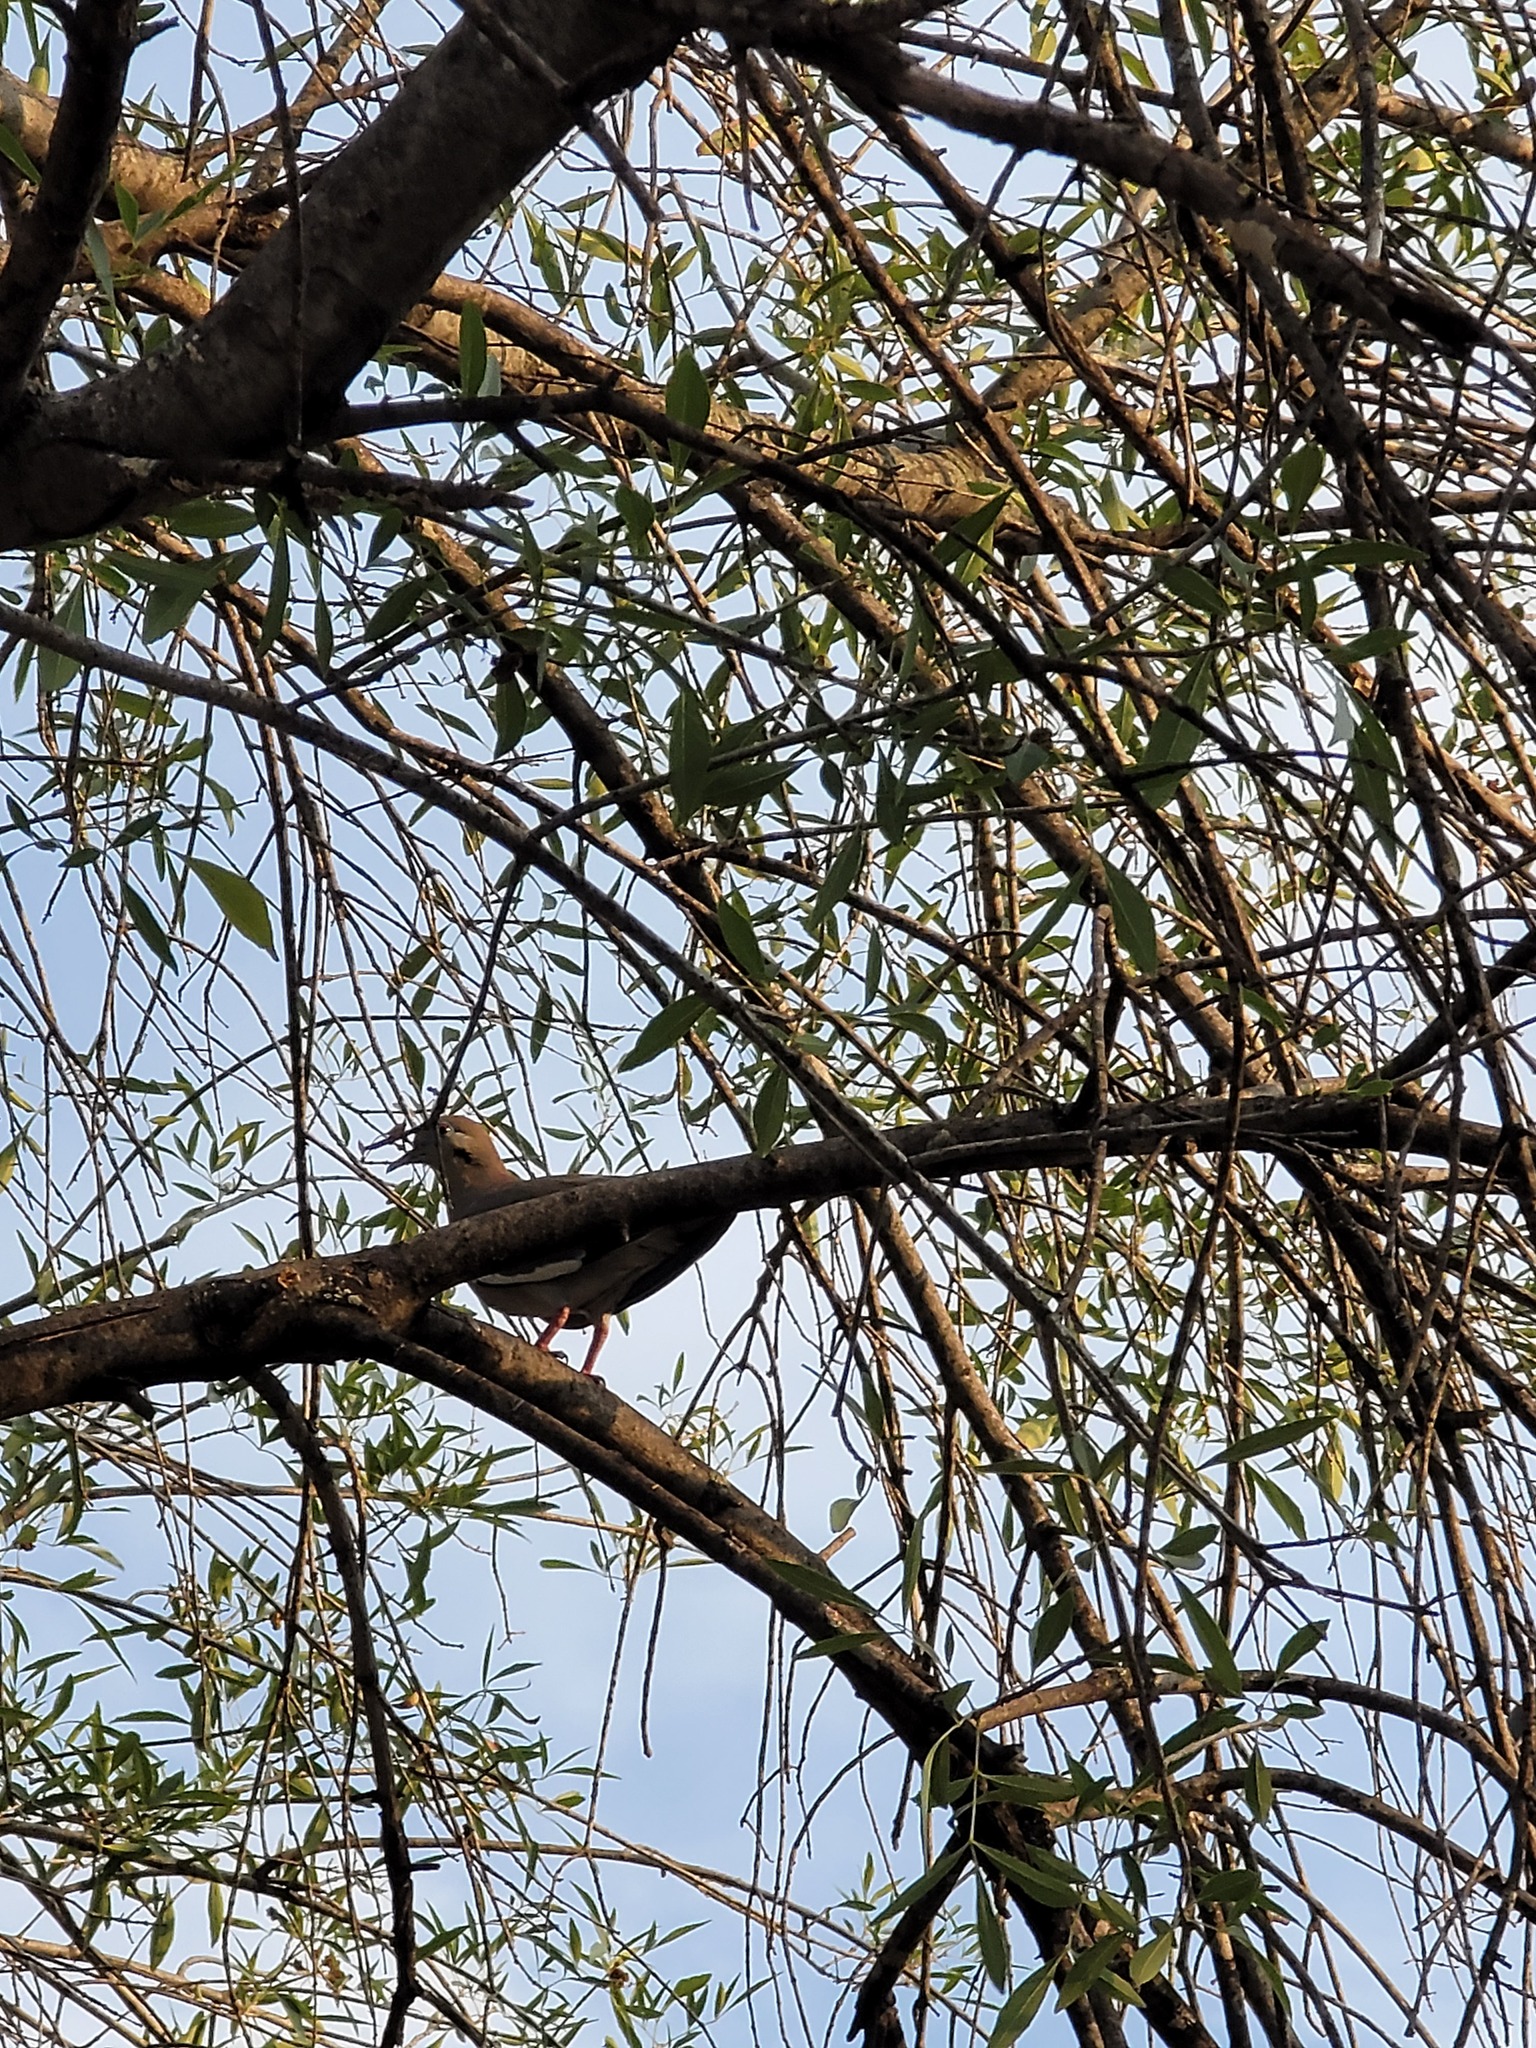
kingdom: Animalia
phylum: Chordata
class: Aves
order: Columbiformes
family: Columbidae
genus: Zenaida
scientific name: Zenaida asiatica
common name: White-winged dove
